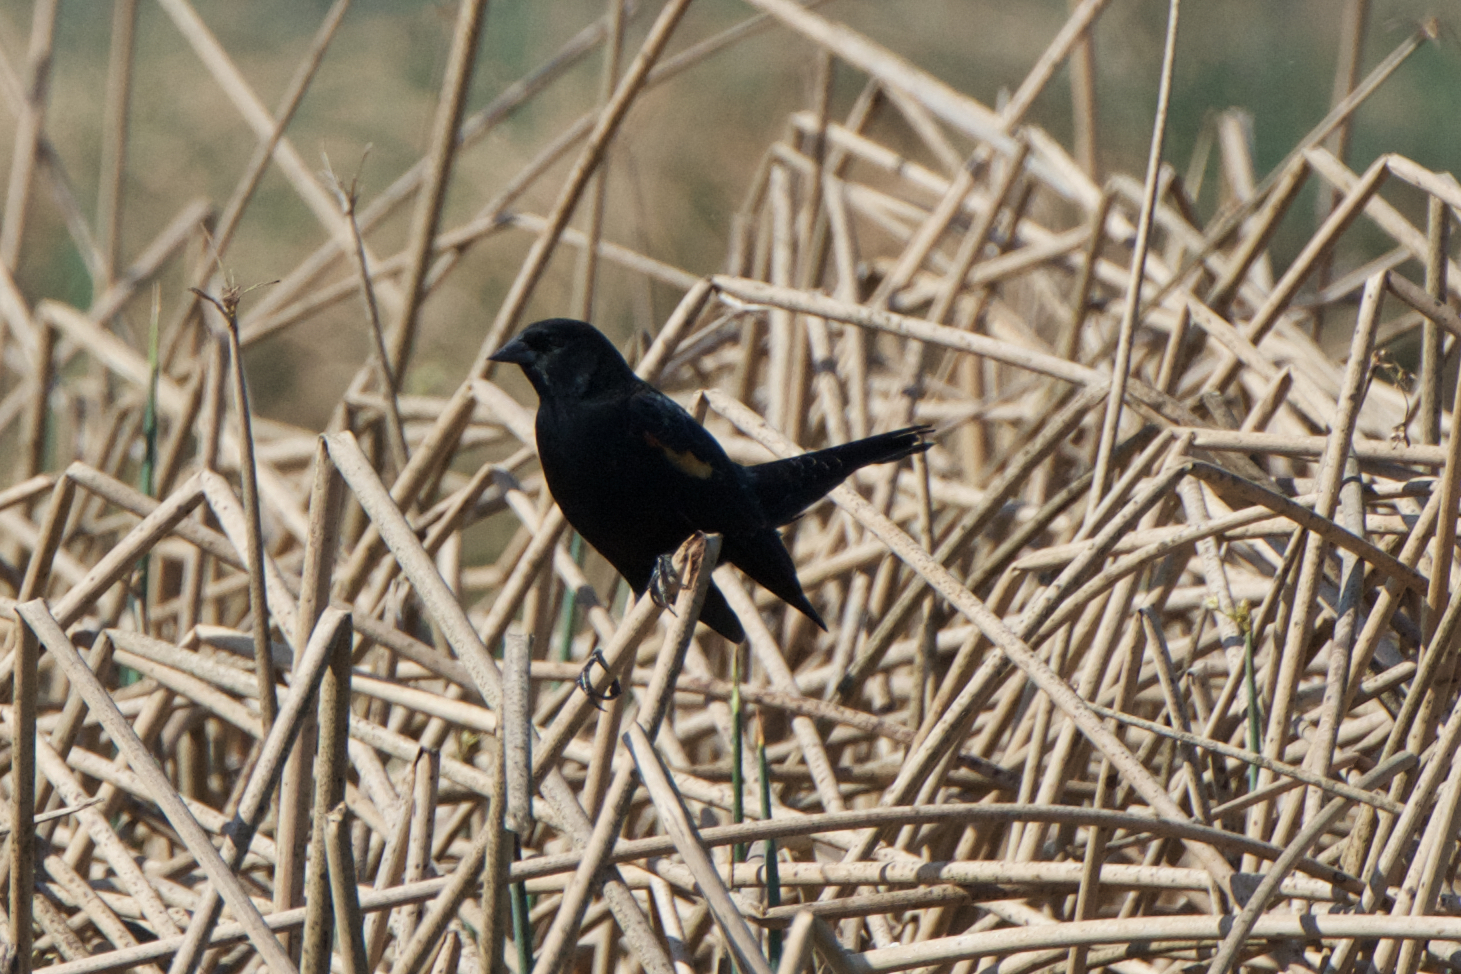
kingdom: Animalia
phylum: Chordata
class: Aves
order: Passeriformes
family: Icteridae
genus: Agelaius
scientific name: Agelaius phoeniceus
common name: Red-winged blackbird
